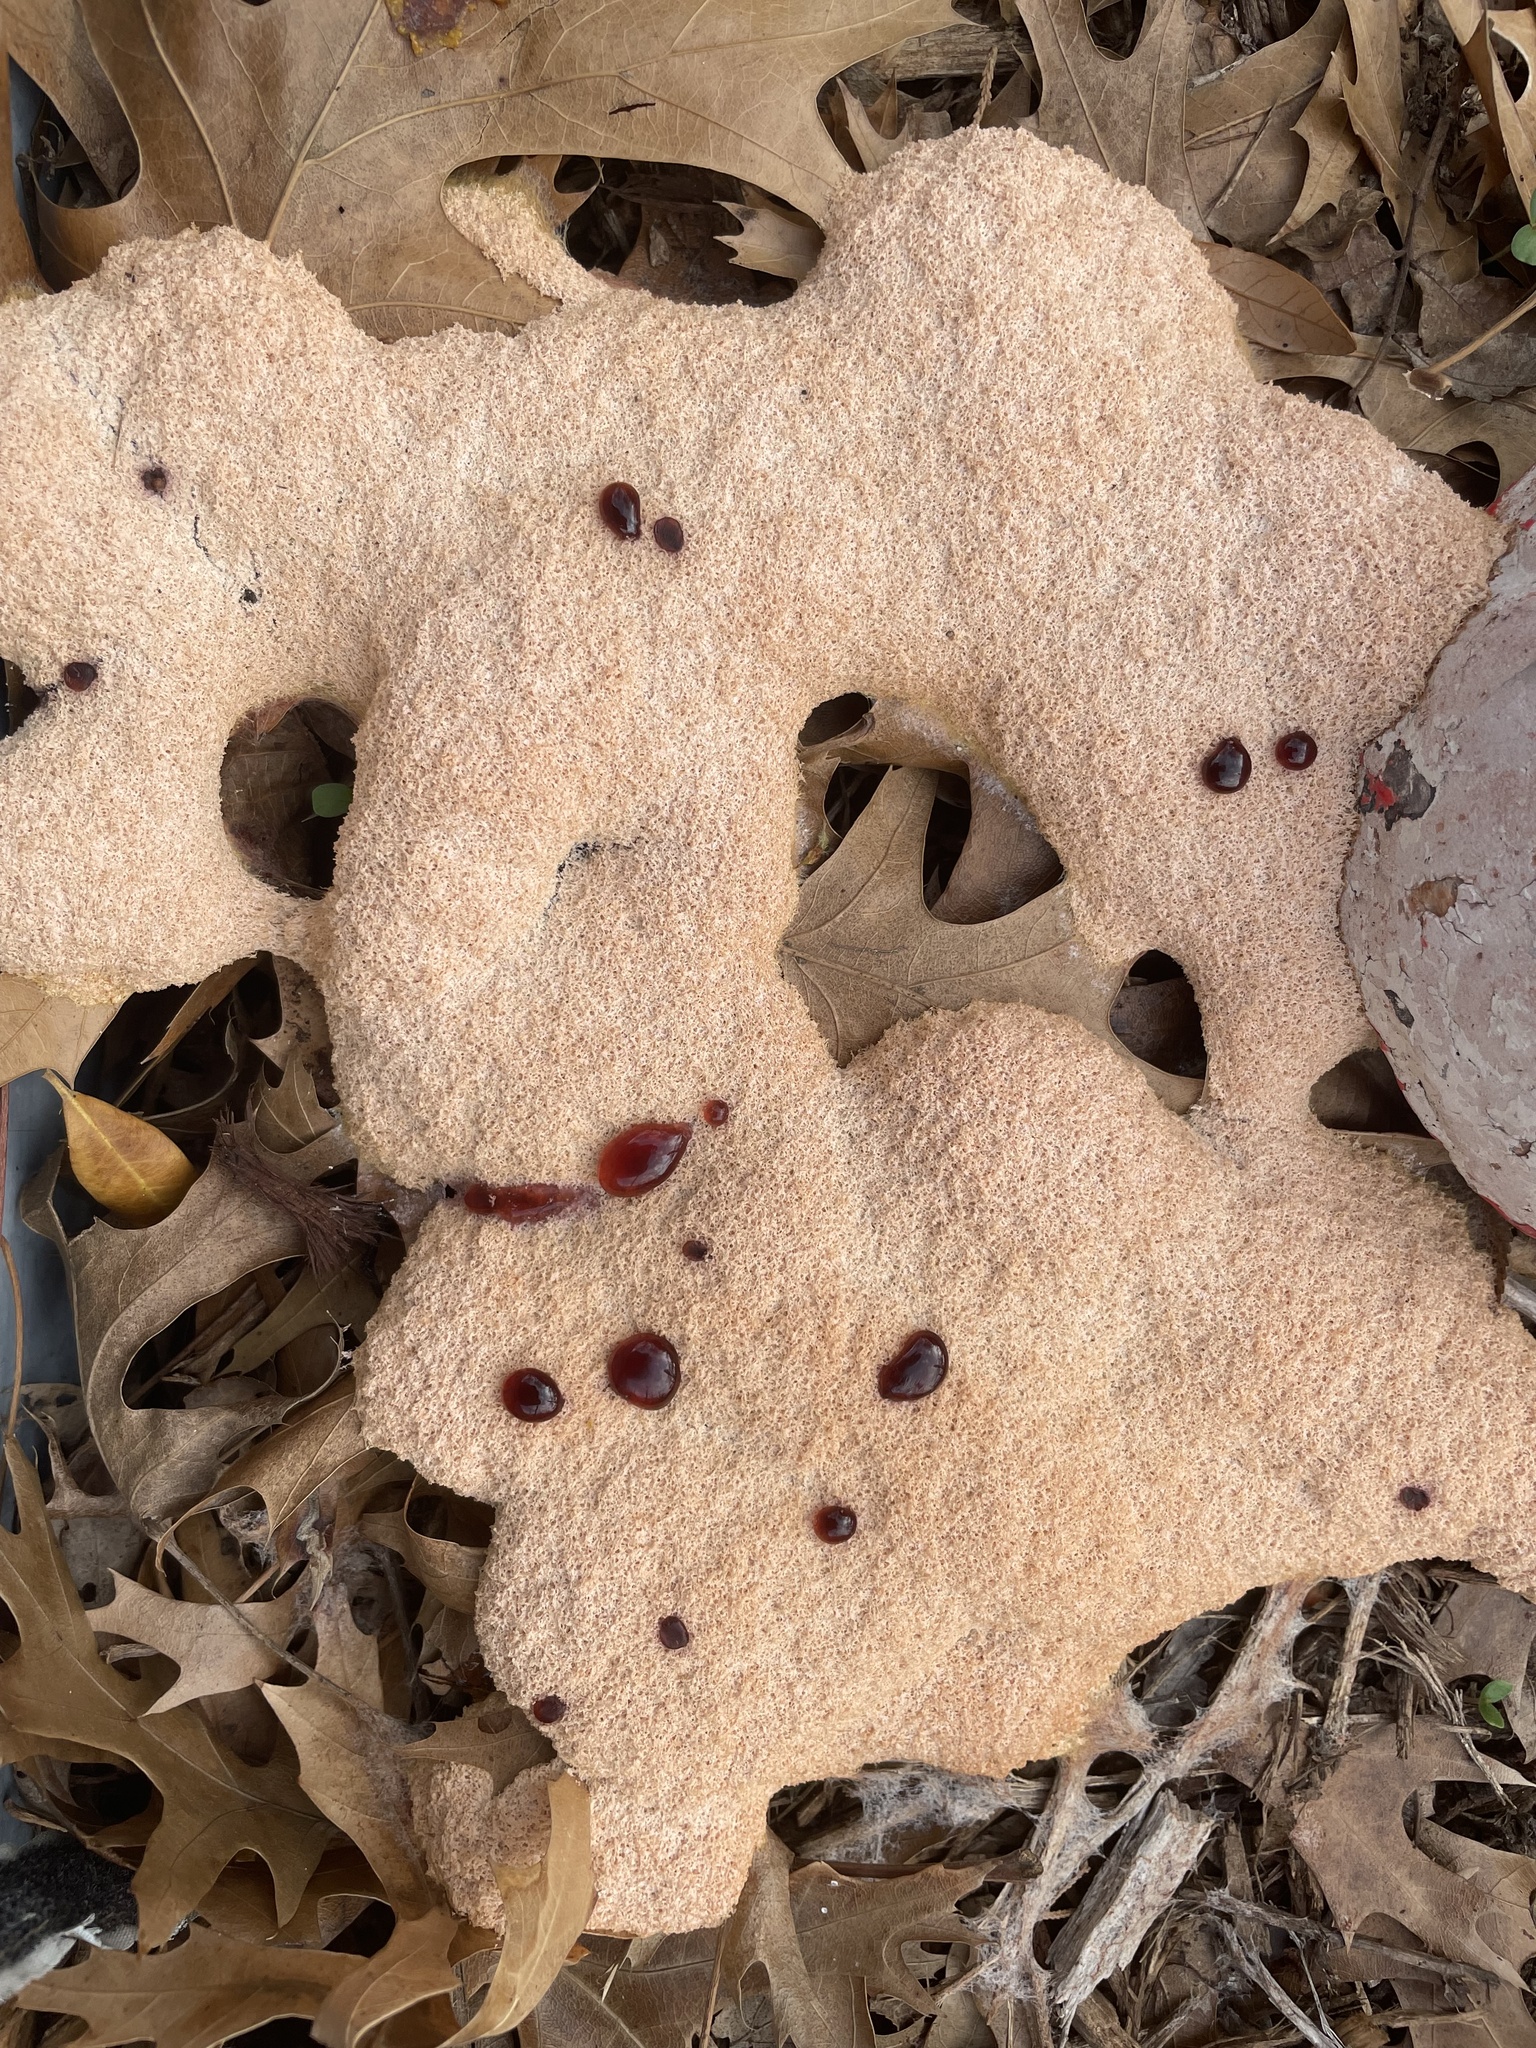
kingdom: Protozoa
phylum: Mycetozoa
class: Myxomycetes
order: Physarales
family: Physaraceae
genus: Fuligo
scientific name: Fuligo septica
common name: Dog vomit slime mold
